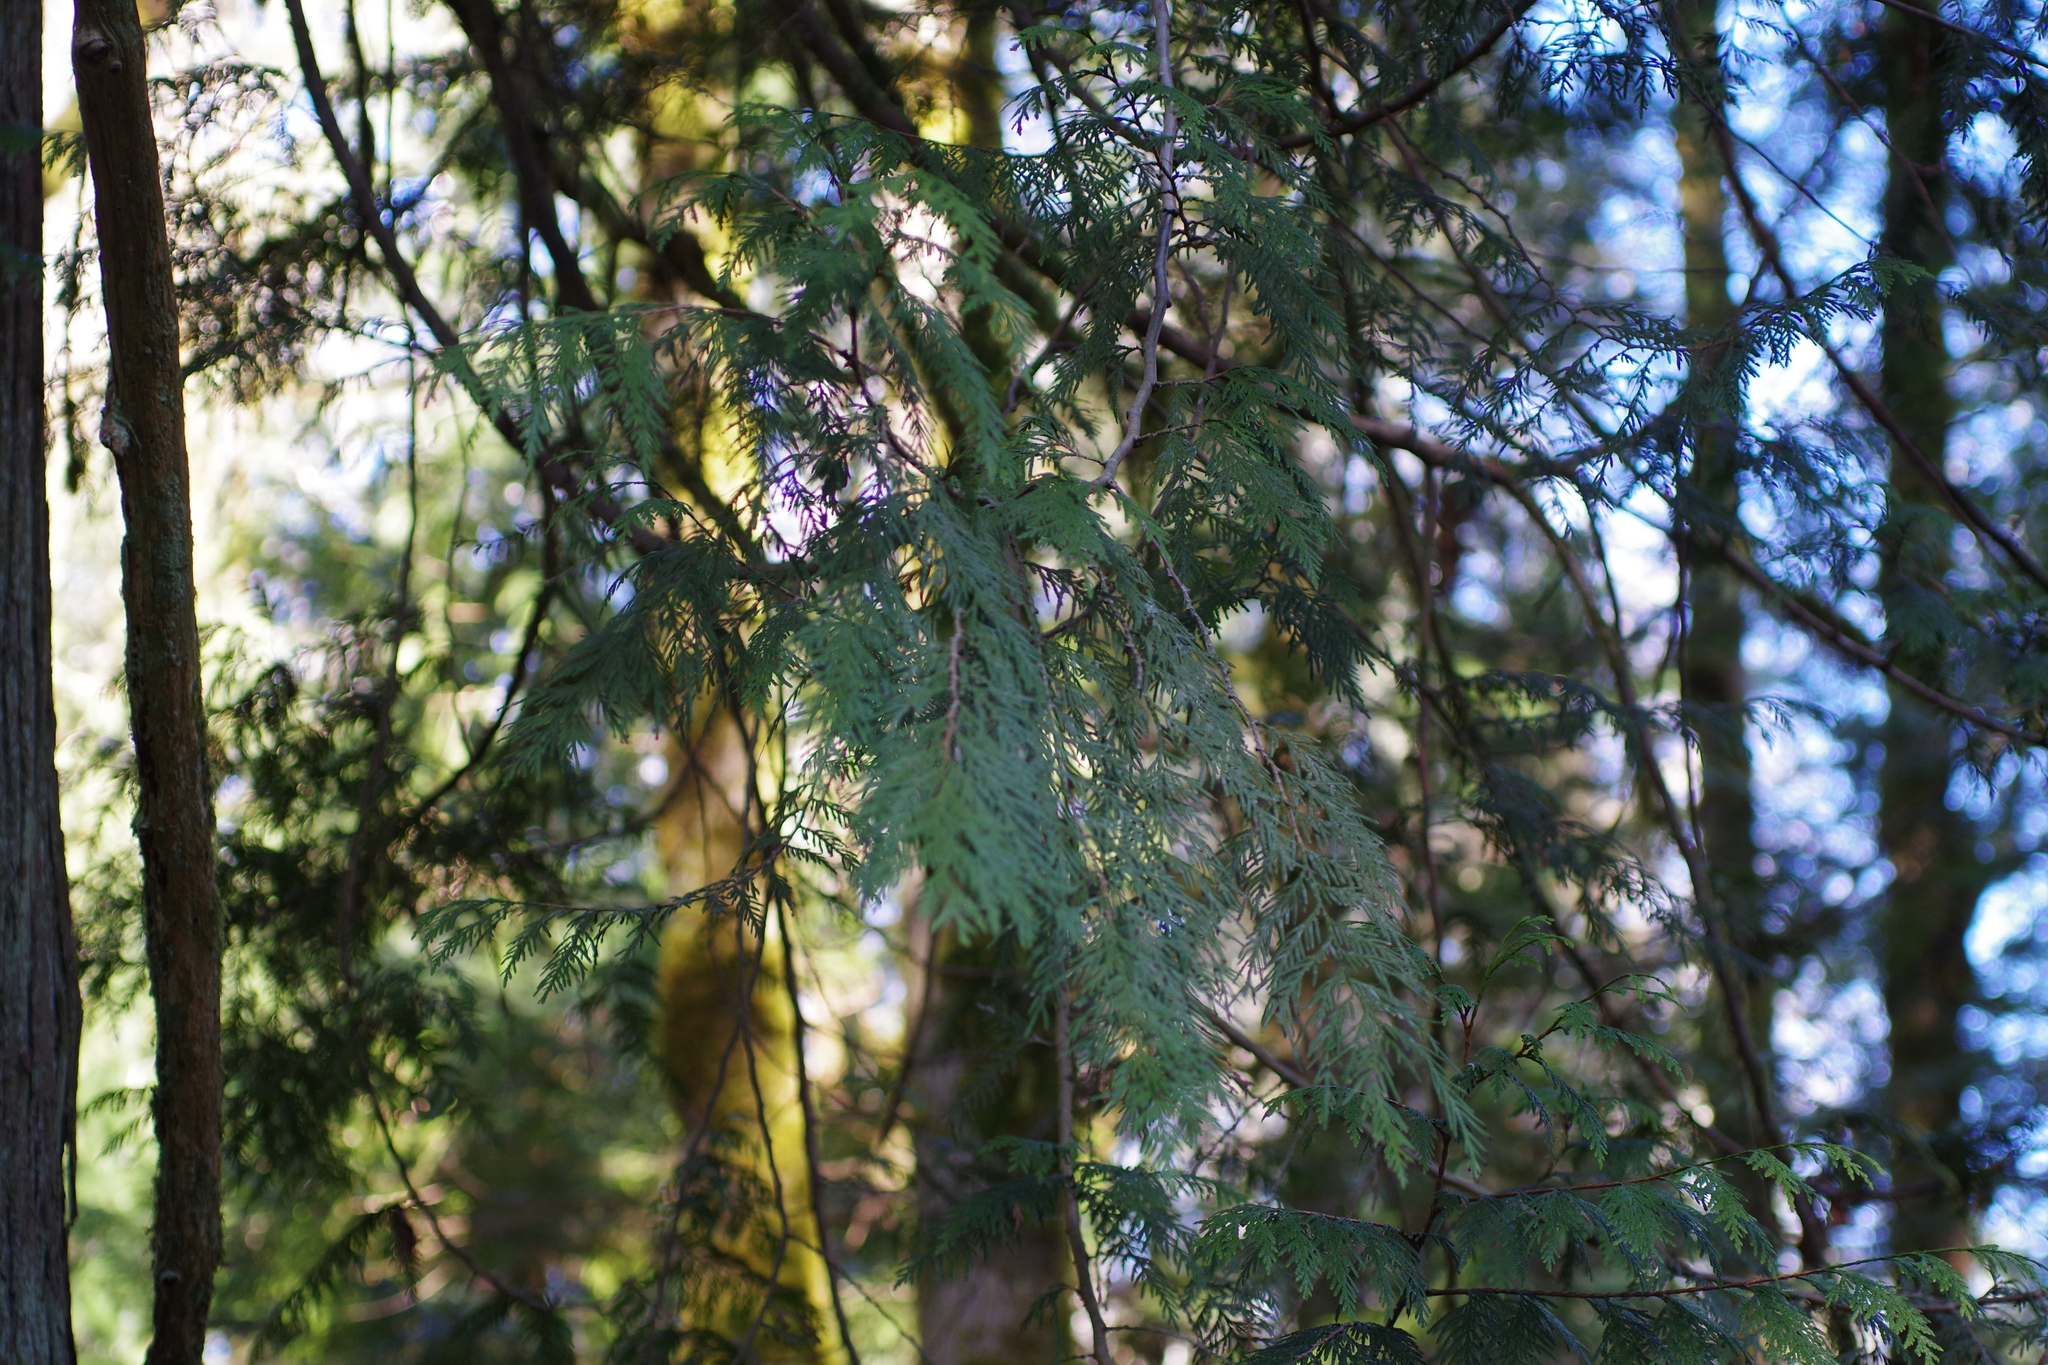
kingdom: Plantae
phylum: Tracheophyta
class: Pinopsida
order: Pinales
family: Cupressaceae
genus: Thuja
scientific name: Thuja plicata
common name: Western red-cedar
